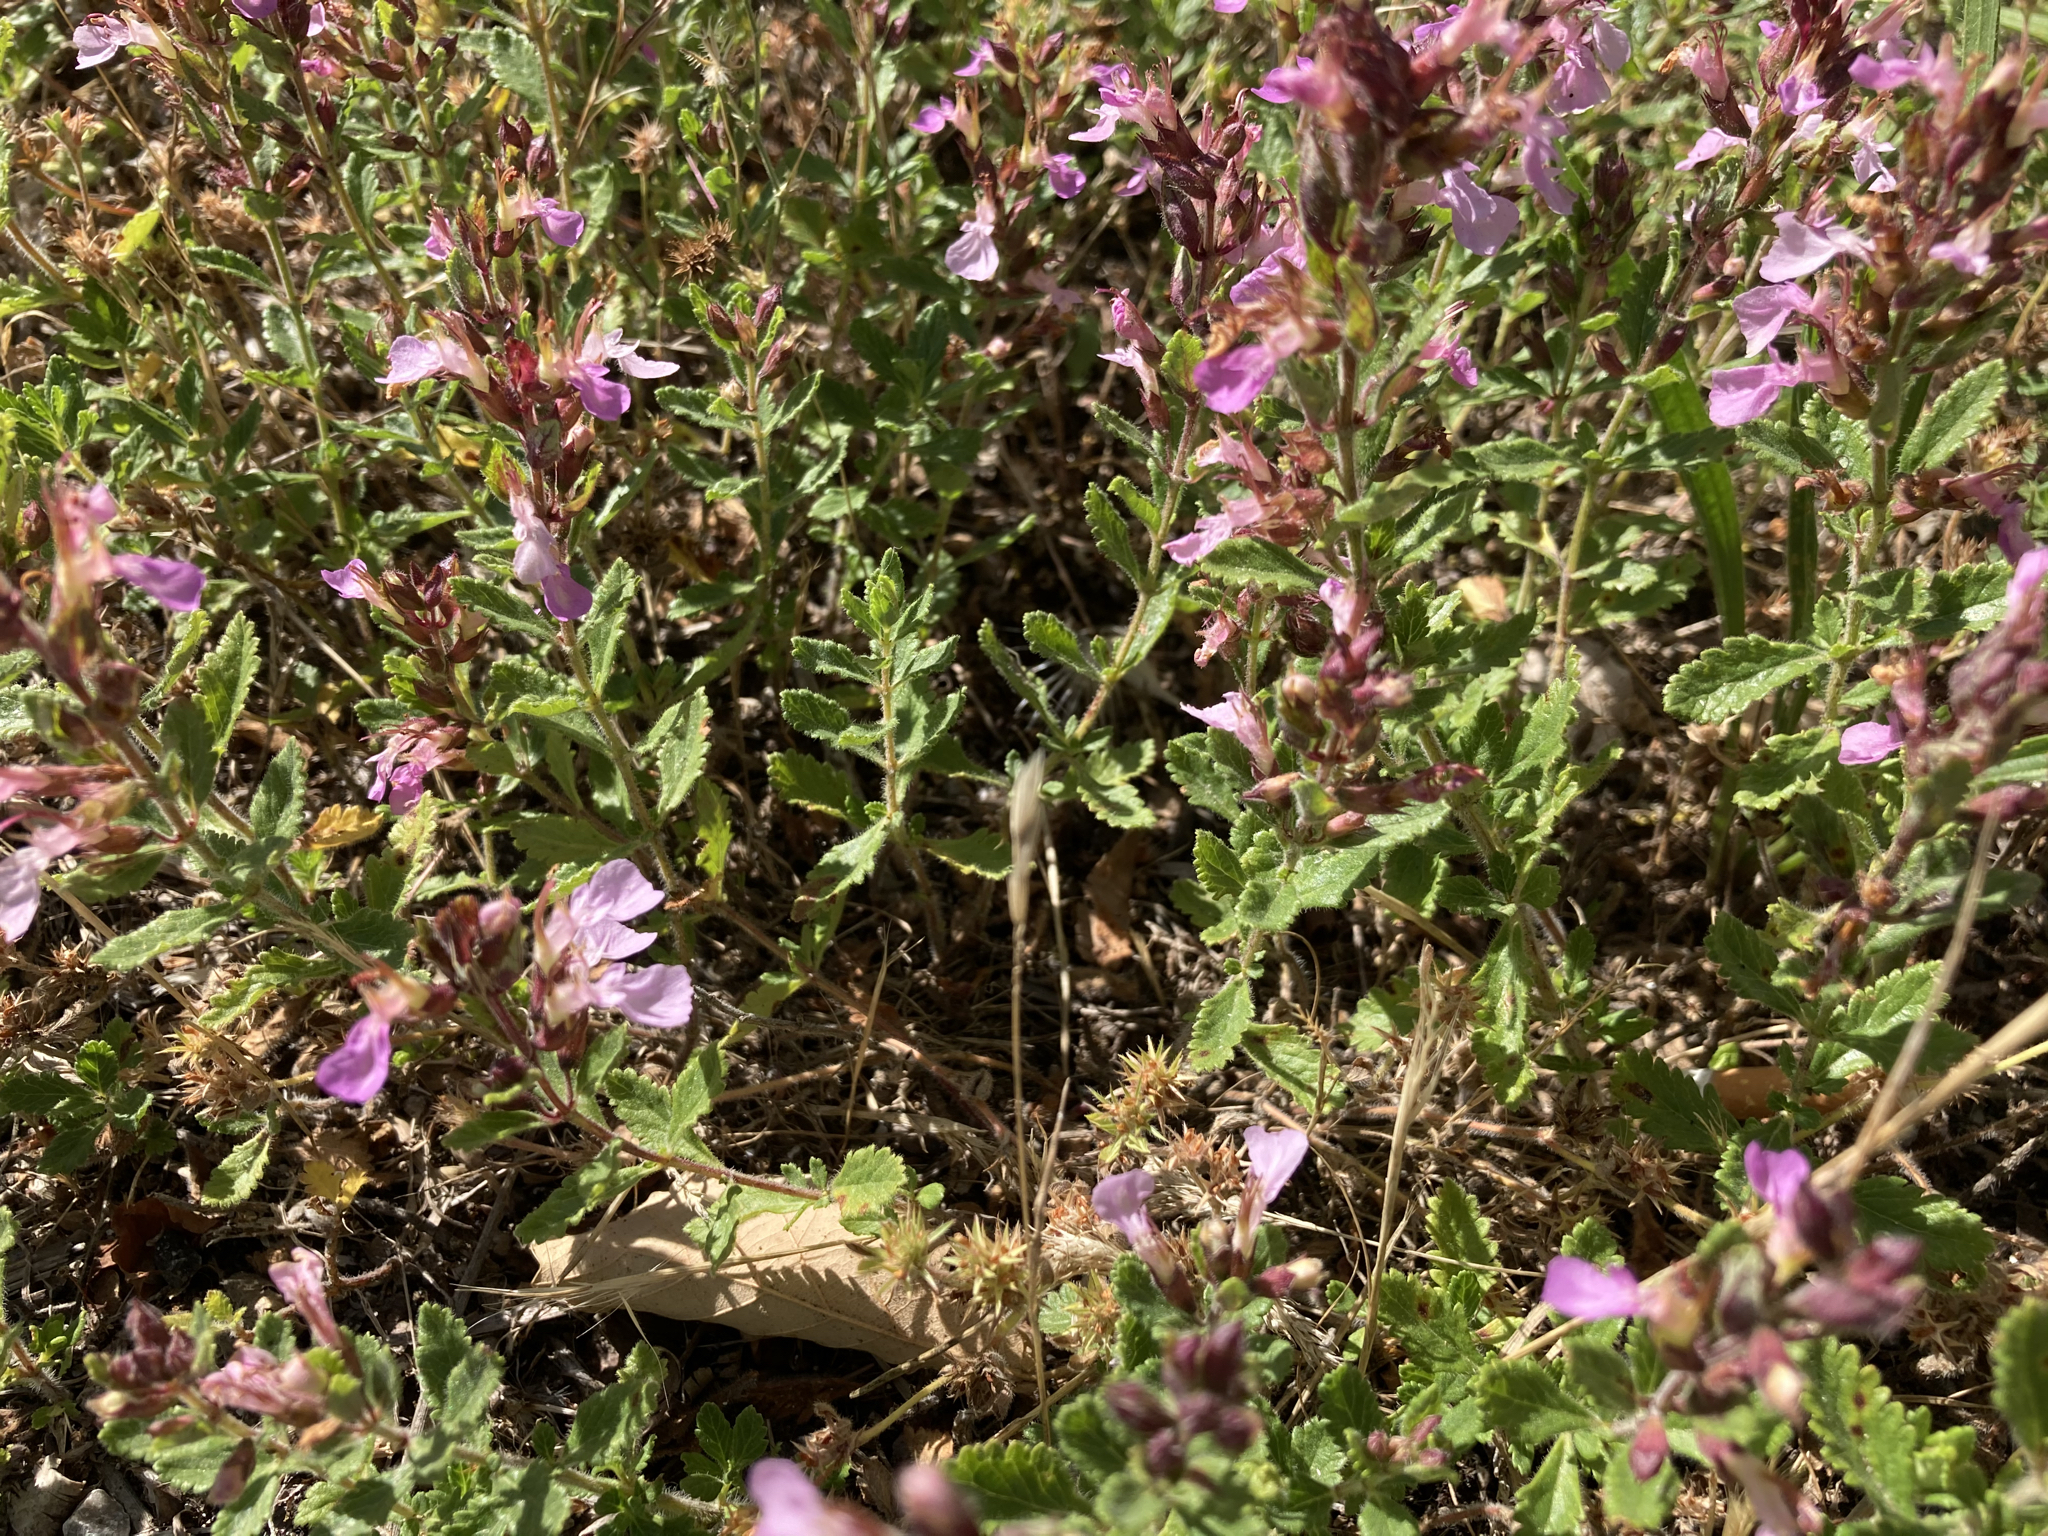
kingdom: Plantae
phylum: Tracheophyta
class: Magnoliopsida
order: Lamiales
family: Lamiaceae
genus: Teucrium
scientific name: Teucrium chamaedrys
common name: Wall germander
